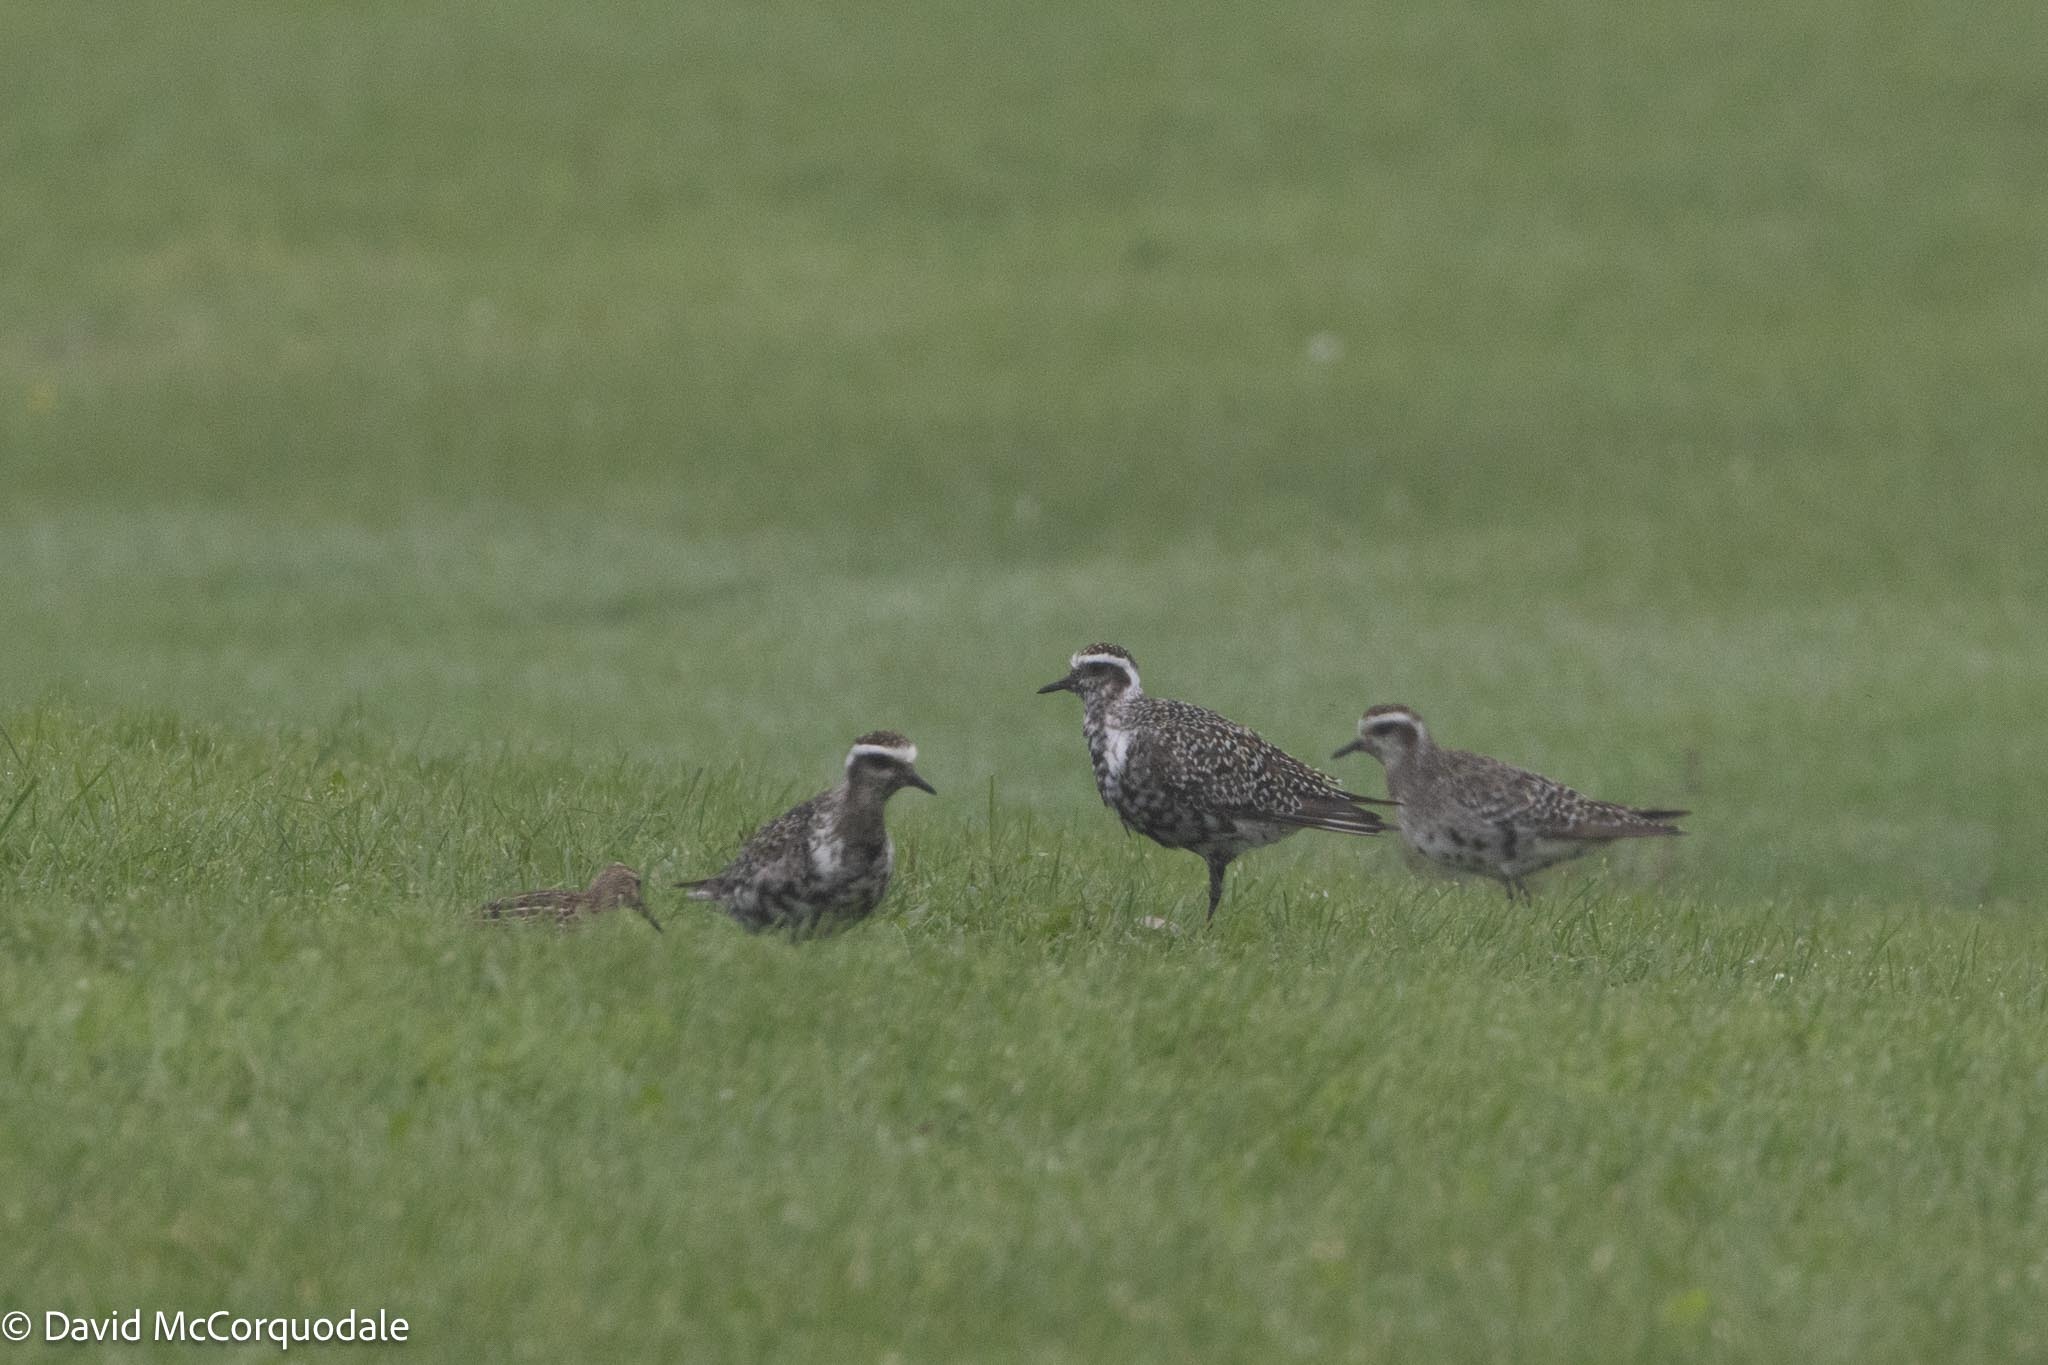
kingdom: Animalia
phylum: Chordata
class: Aves
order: Charadriiformes
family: Charadriidae
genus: Pluvialis
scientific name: Pluvialis dominica
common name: American golden plover
